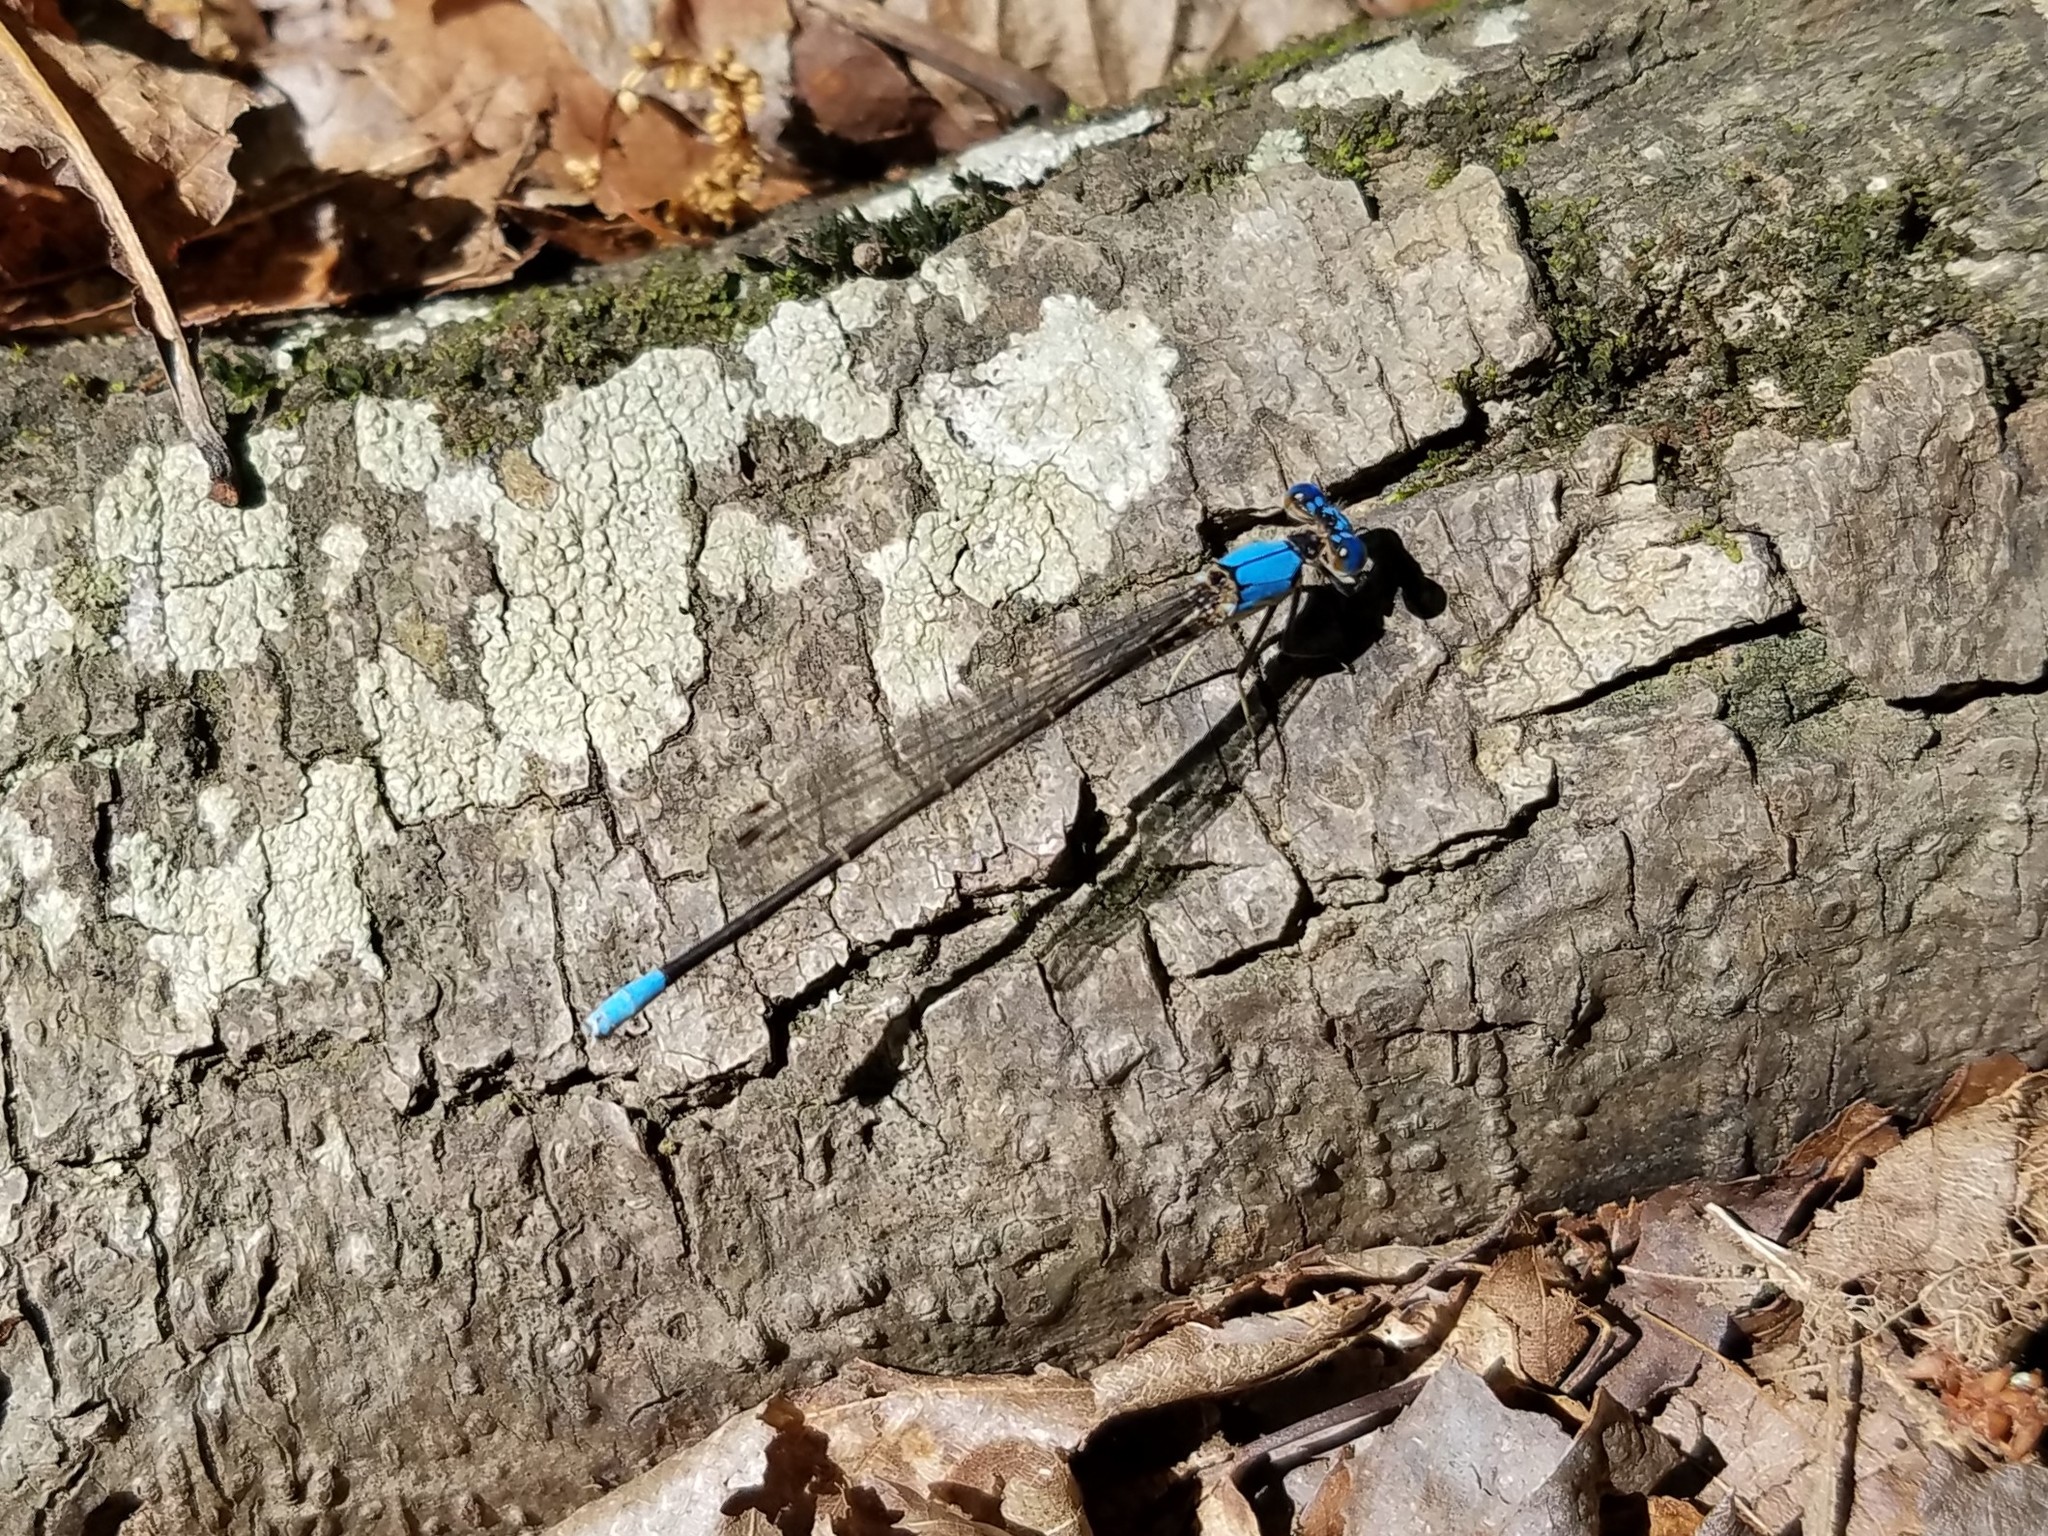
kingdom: Animalia
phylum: Arthropoda
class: Insecta
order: Odonata
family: Coenagrionidae
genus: Argia
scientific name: Argia apicalis
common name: Blue-fronted dancer
